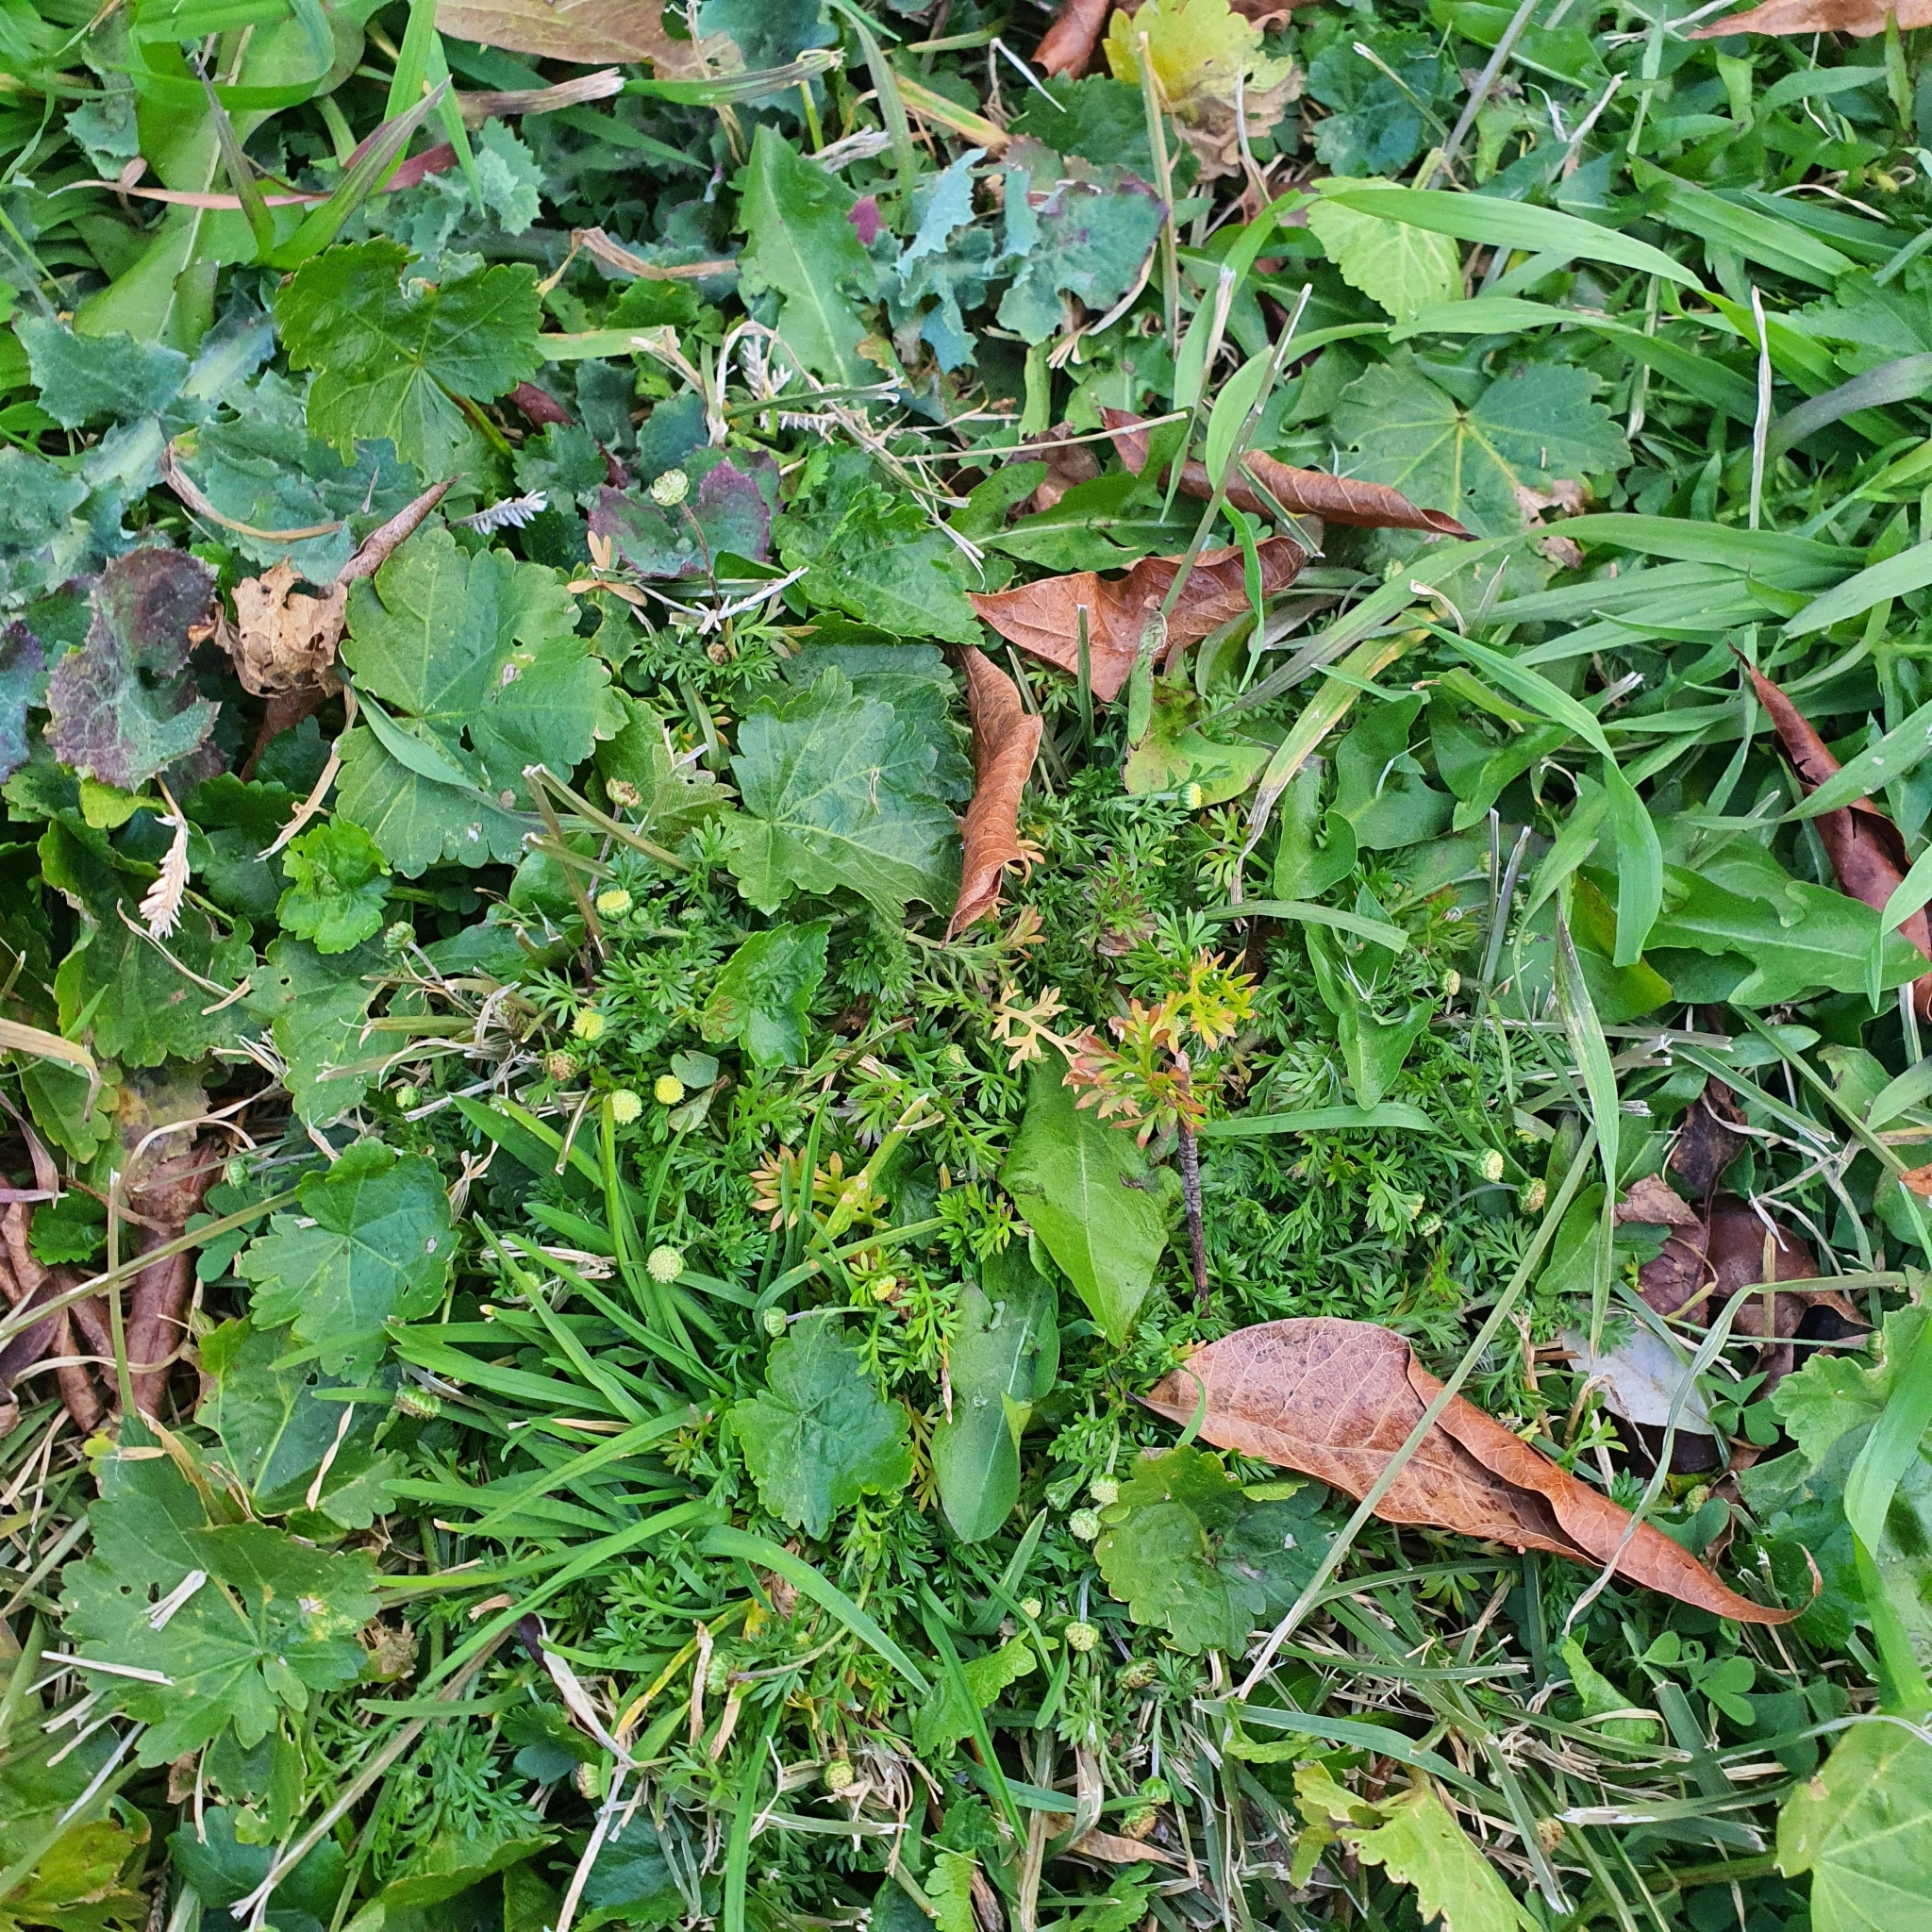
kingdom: Plantae
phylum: Tracheophyta
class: Magnoliopsida
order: Asterales
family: Asteraceae
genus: Cotula
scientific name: Cotula australis
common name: Australian waterbuttons
